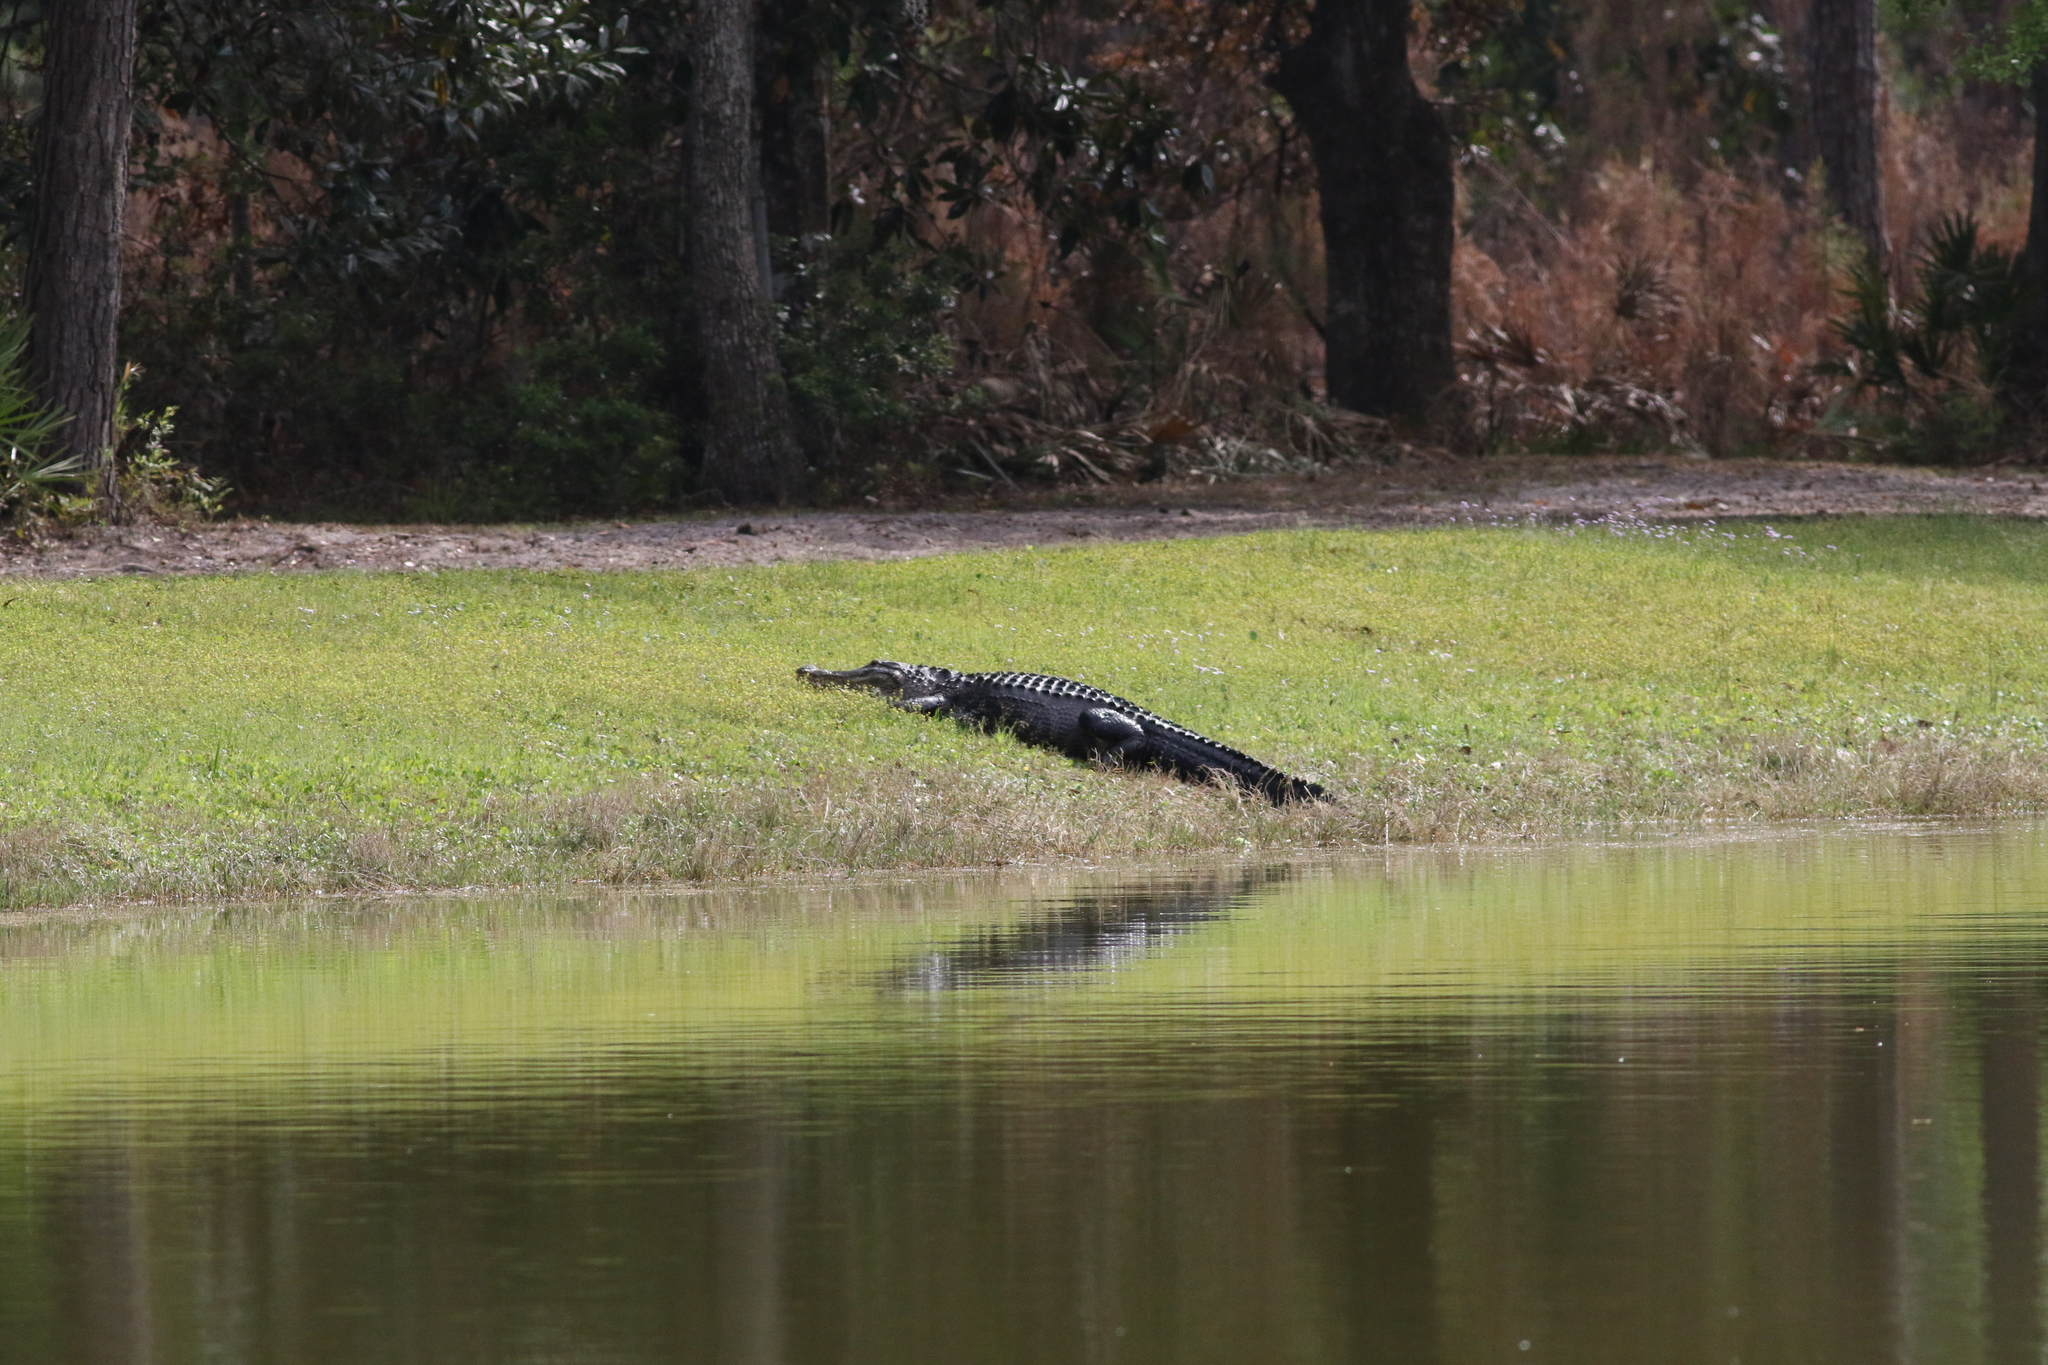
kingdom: Animalia
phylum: Chordata
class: Crocodylia
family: Alligatoridae
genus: Alligator
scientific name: Alligator mississippiensis
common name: American alligator
